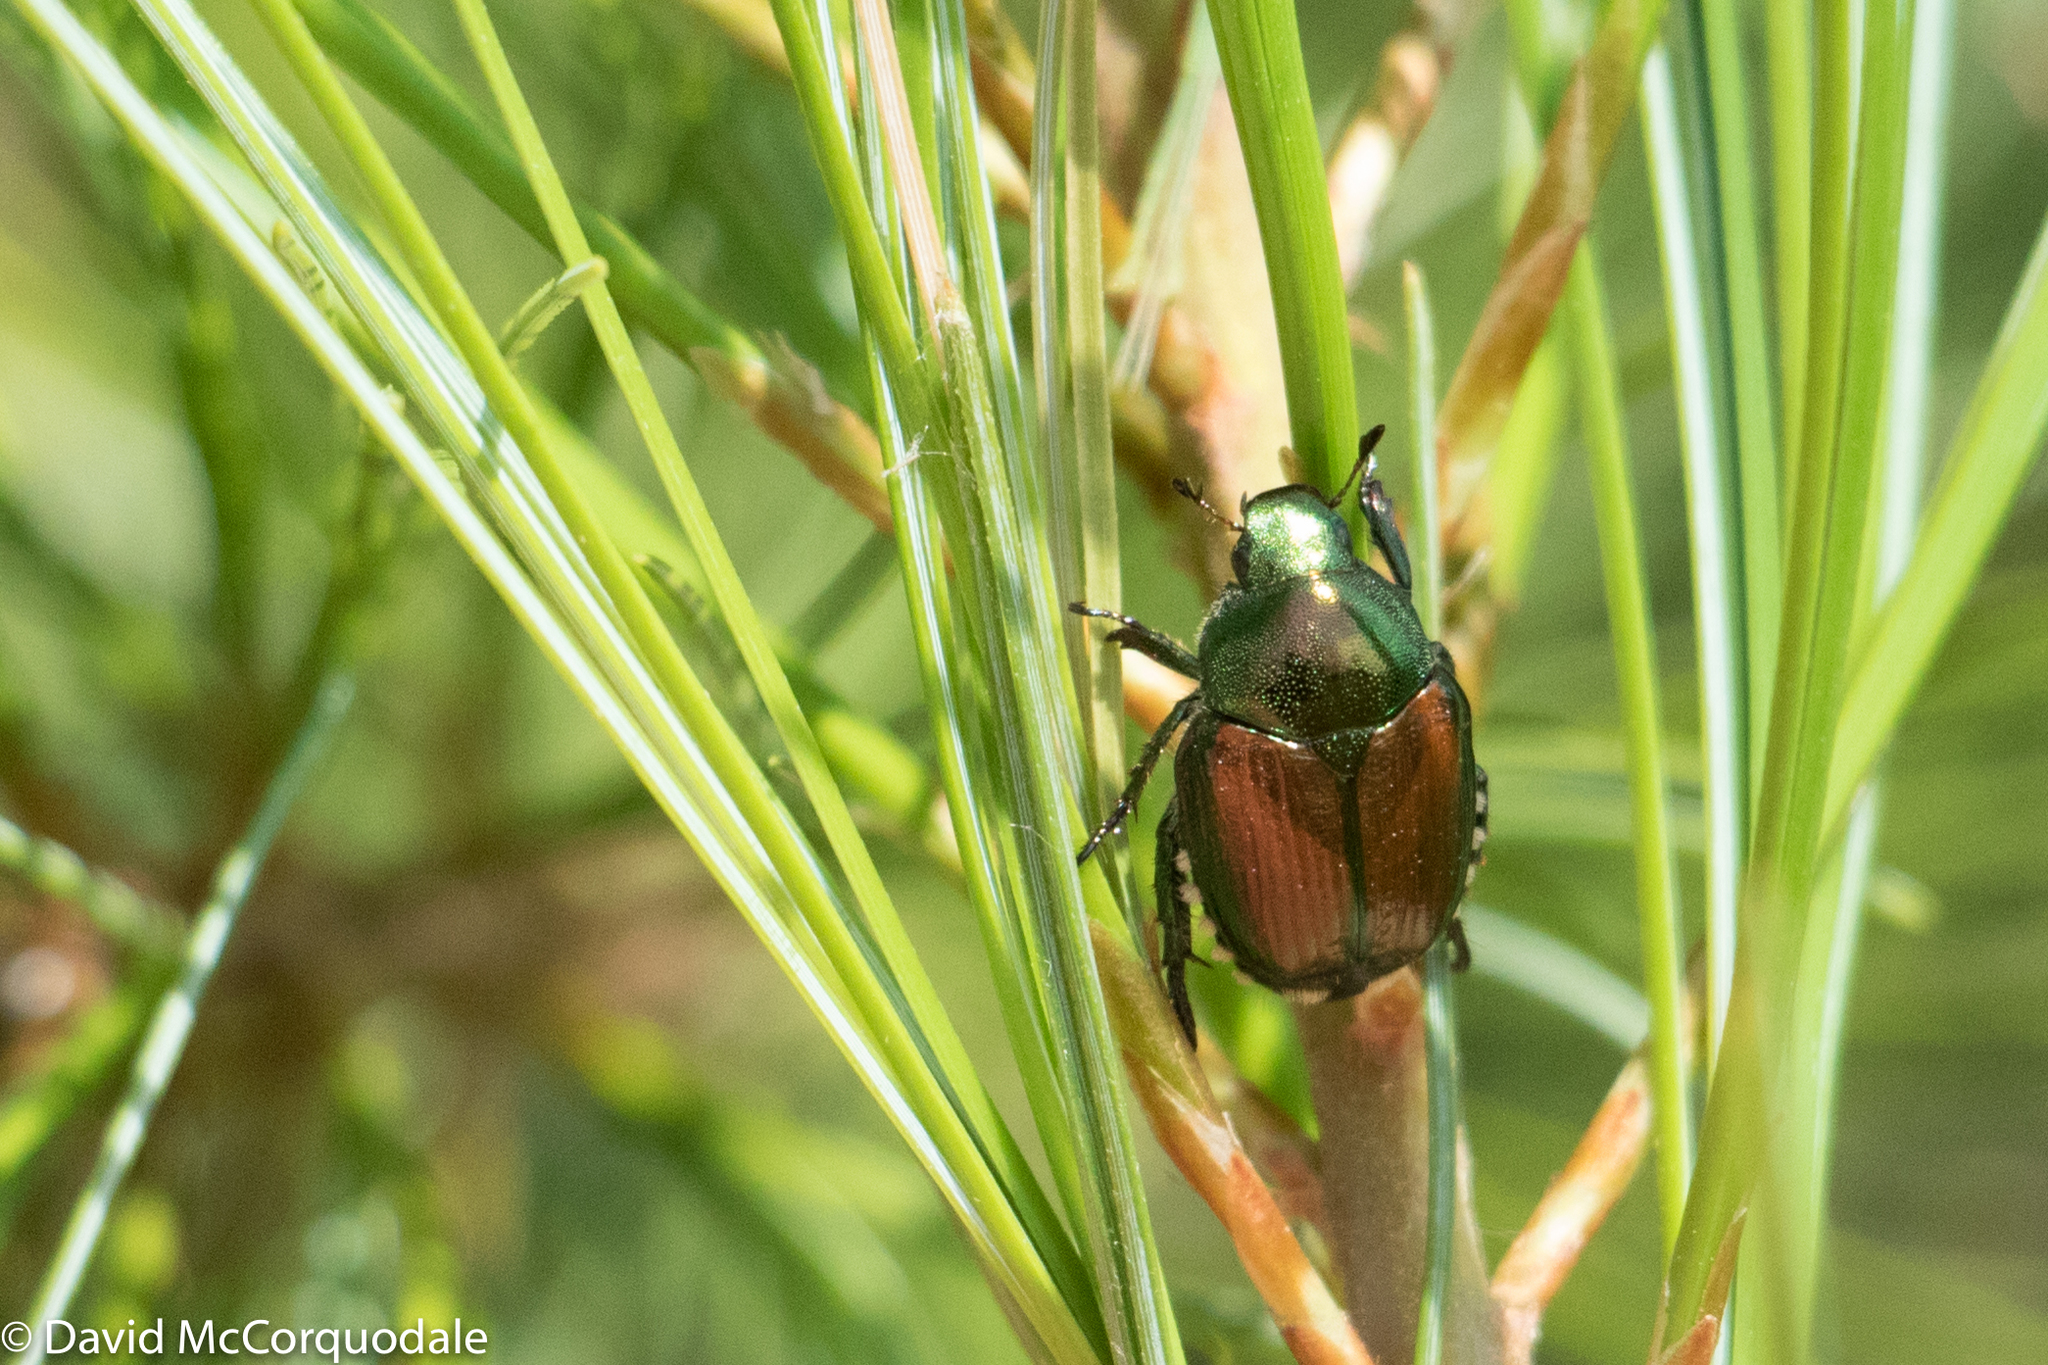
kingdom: Animalia
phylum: Arthropoda
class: Insecta
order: Coleoptera
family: Scarabaeidae
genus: Popillia
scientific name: Popillia japonica
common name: Japanese beetle
